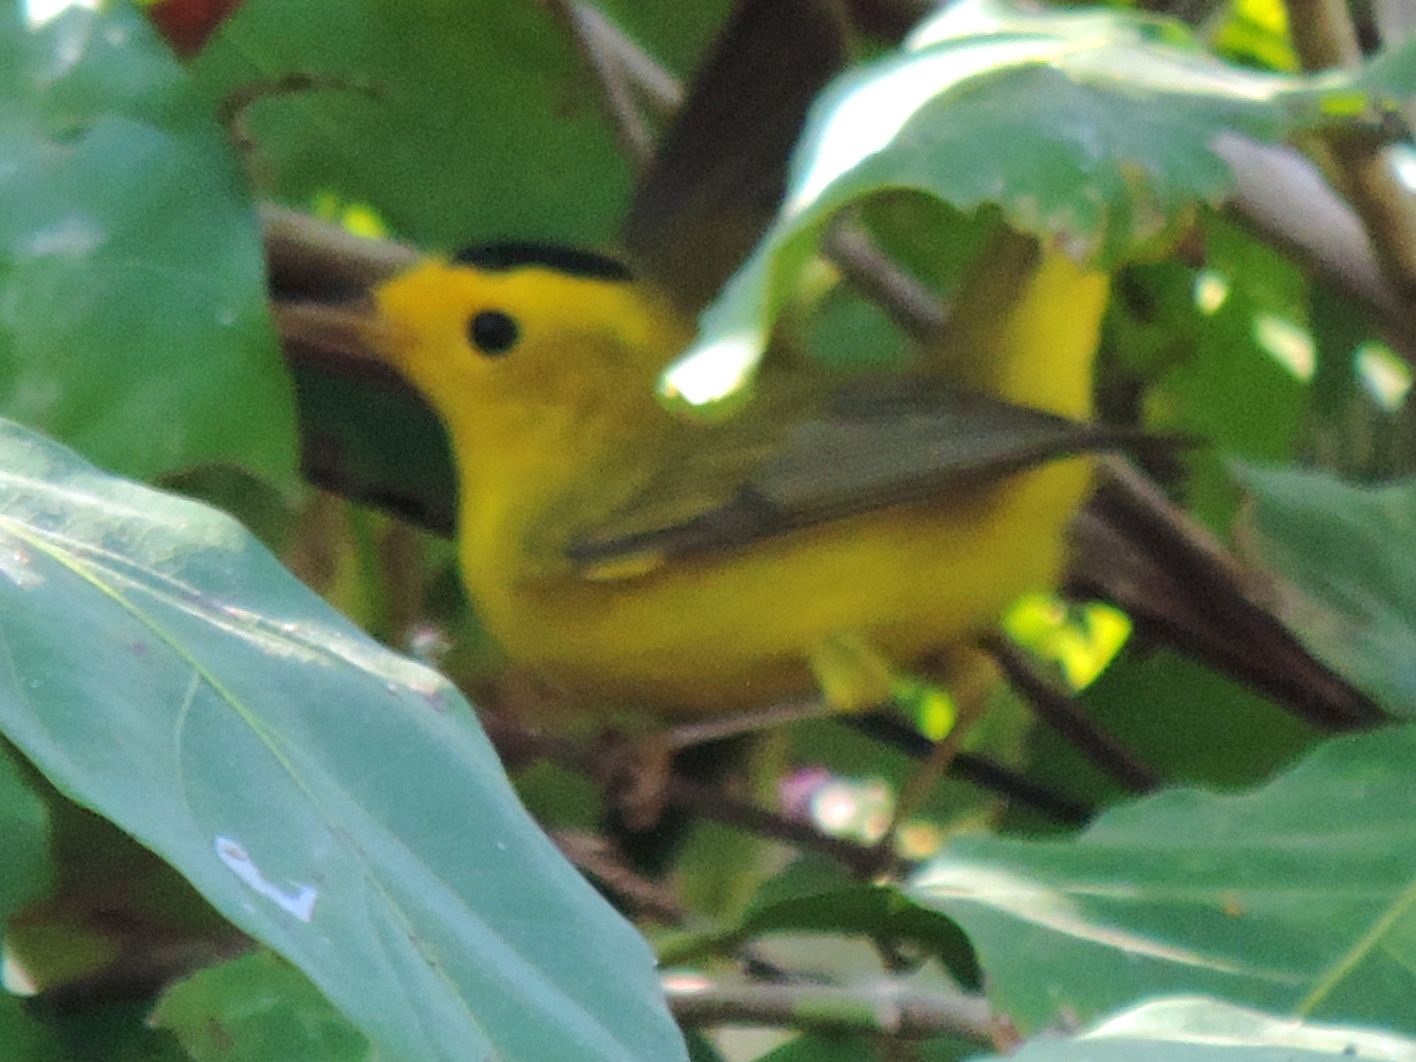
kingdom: Animalia
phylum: Chordata
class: Aves
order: Passeriformes
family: Parulidae
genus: Cardellina
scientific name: Cardellina pusilla
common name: Wilson's warbler
